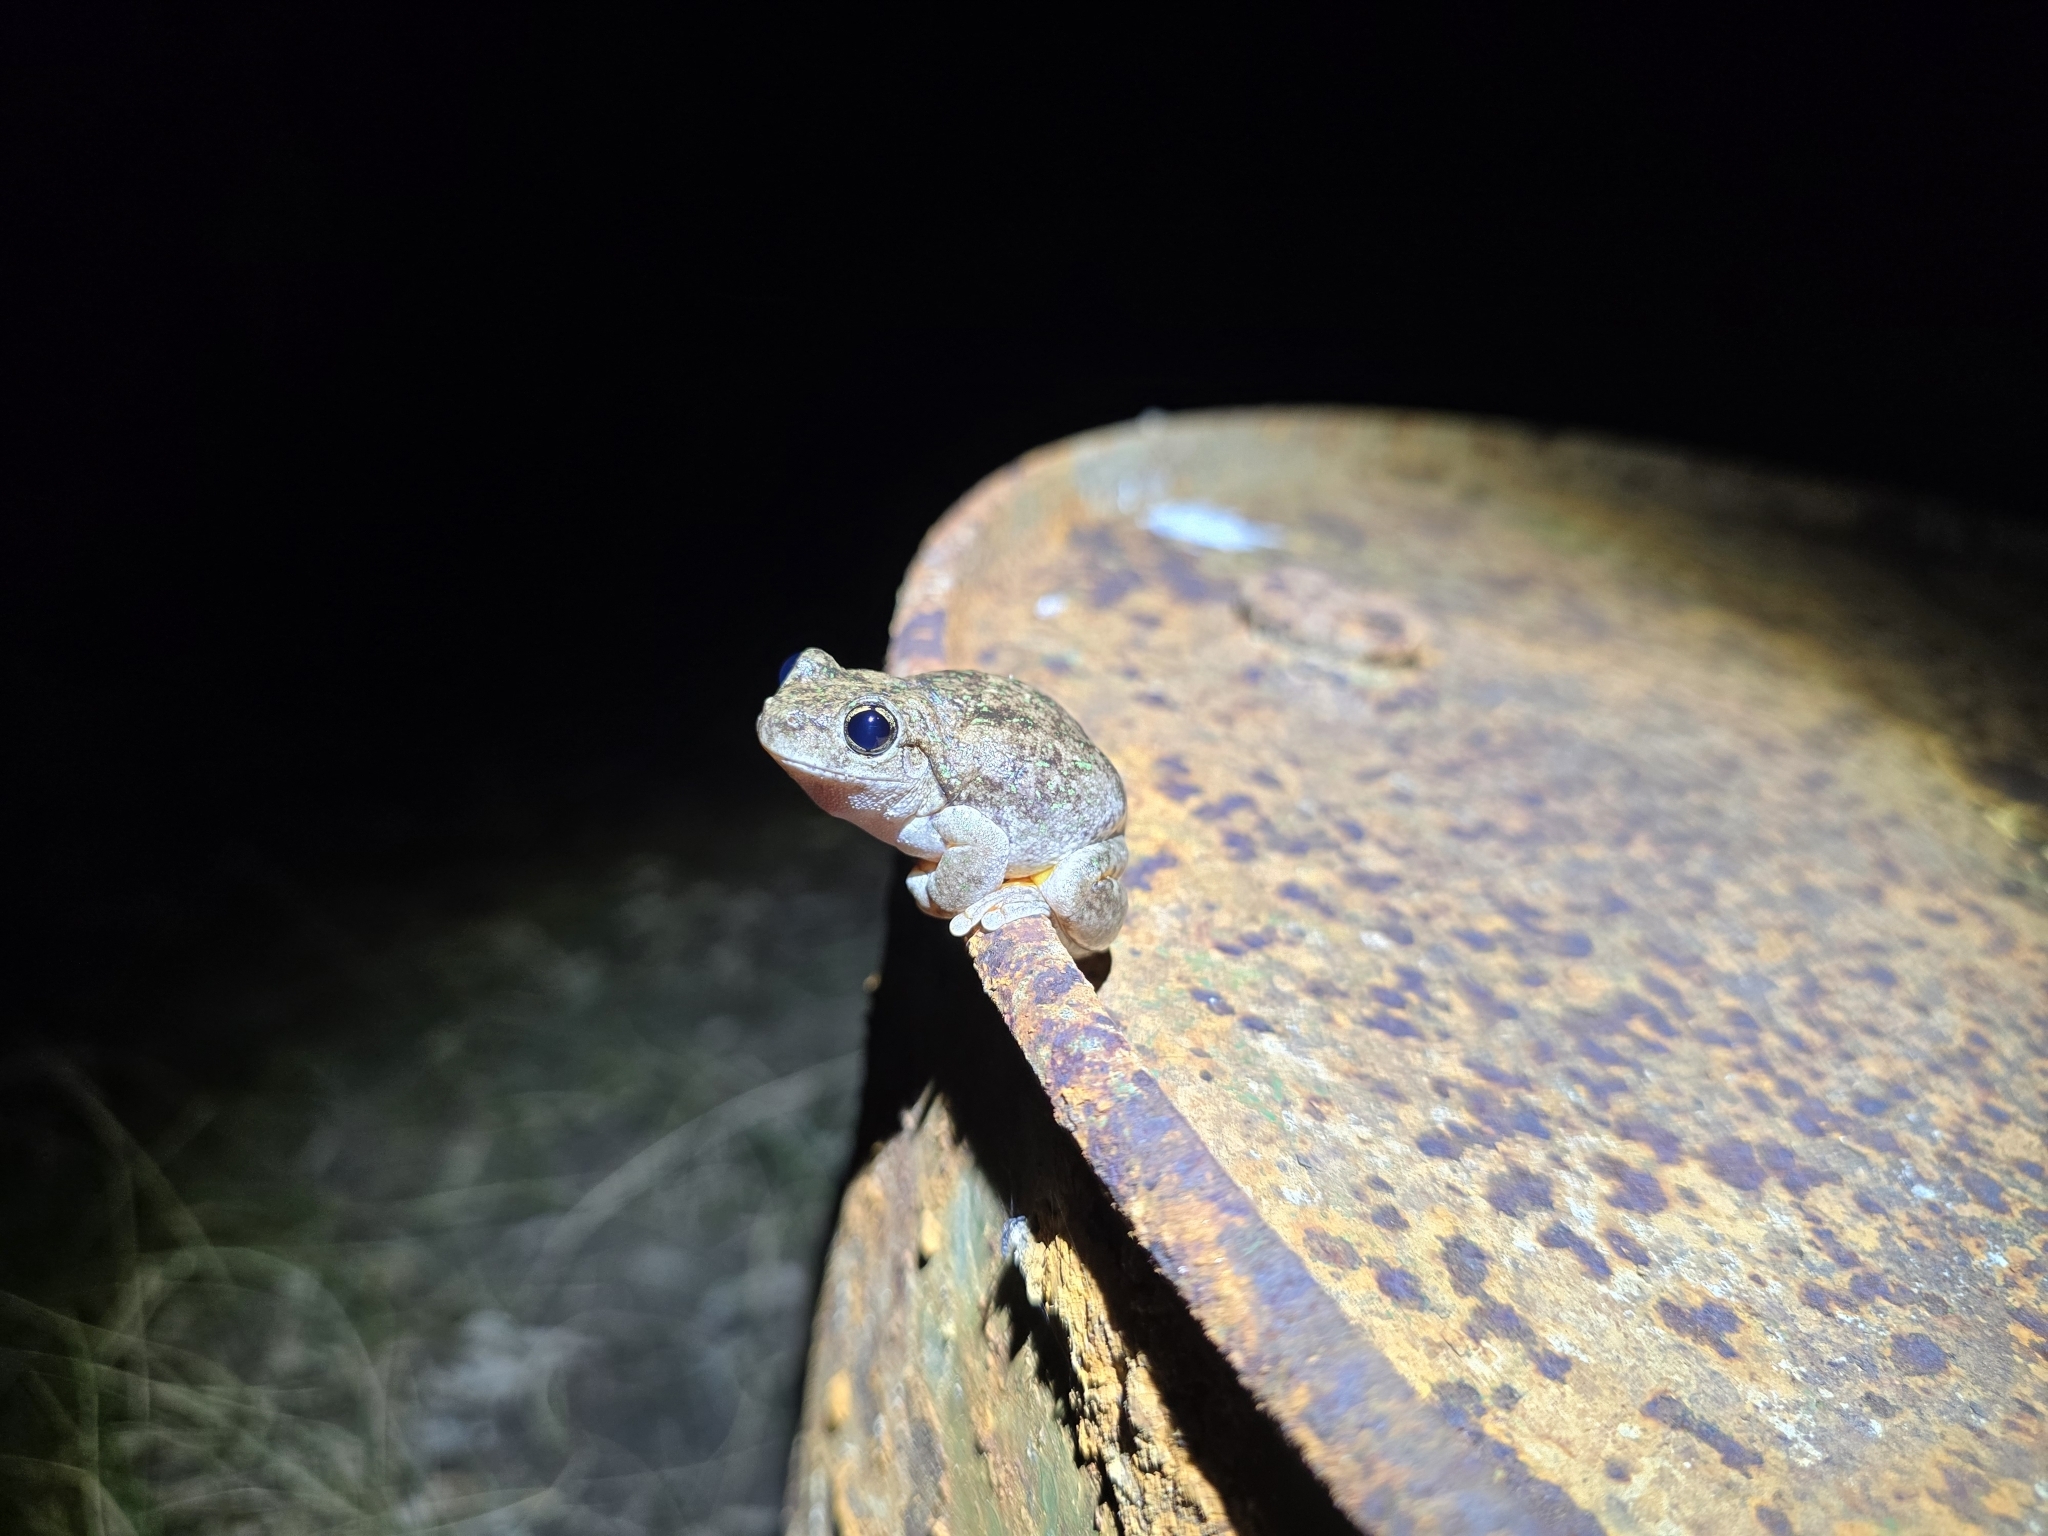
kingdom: Animalia
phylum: Chordata
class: Amphibia
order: Anura
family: Pelodryadidae
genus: Litoria
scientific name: Litoria peronii
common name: Emerald spotted treefrog
